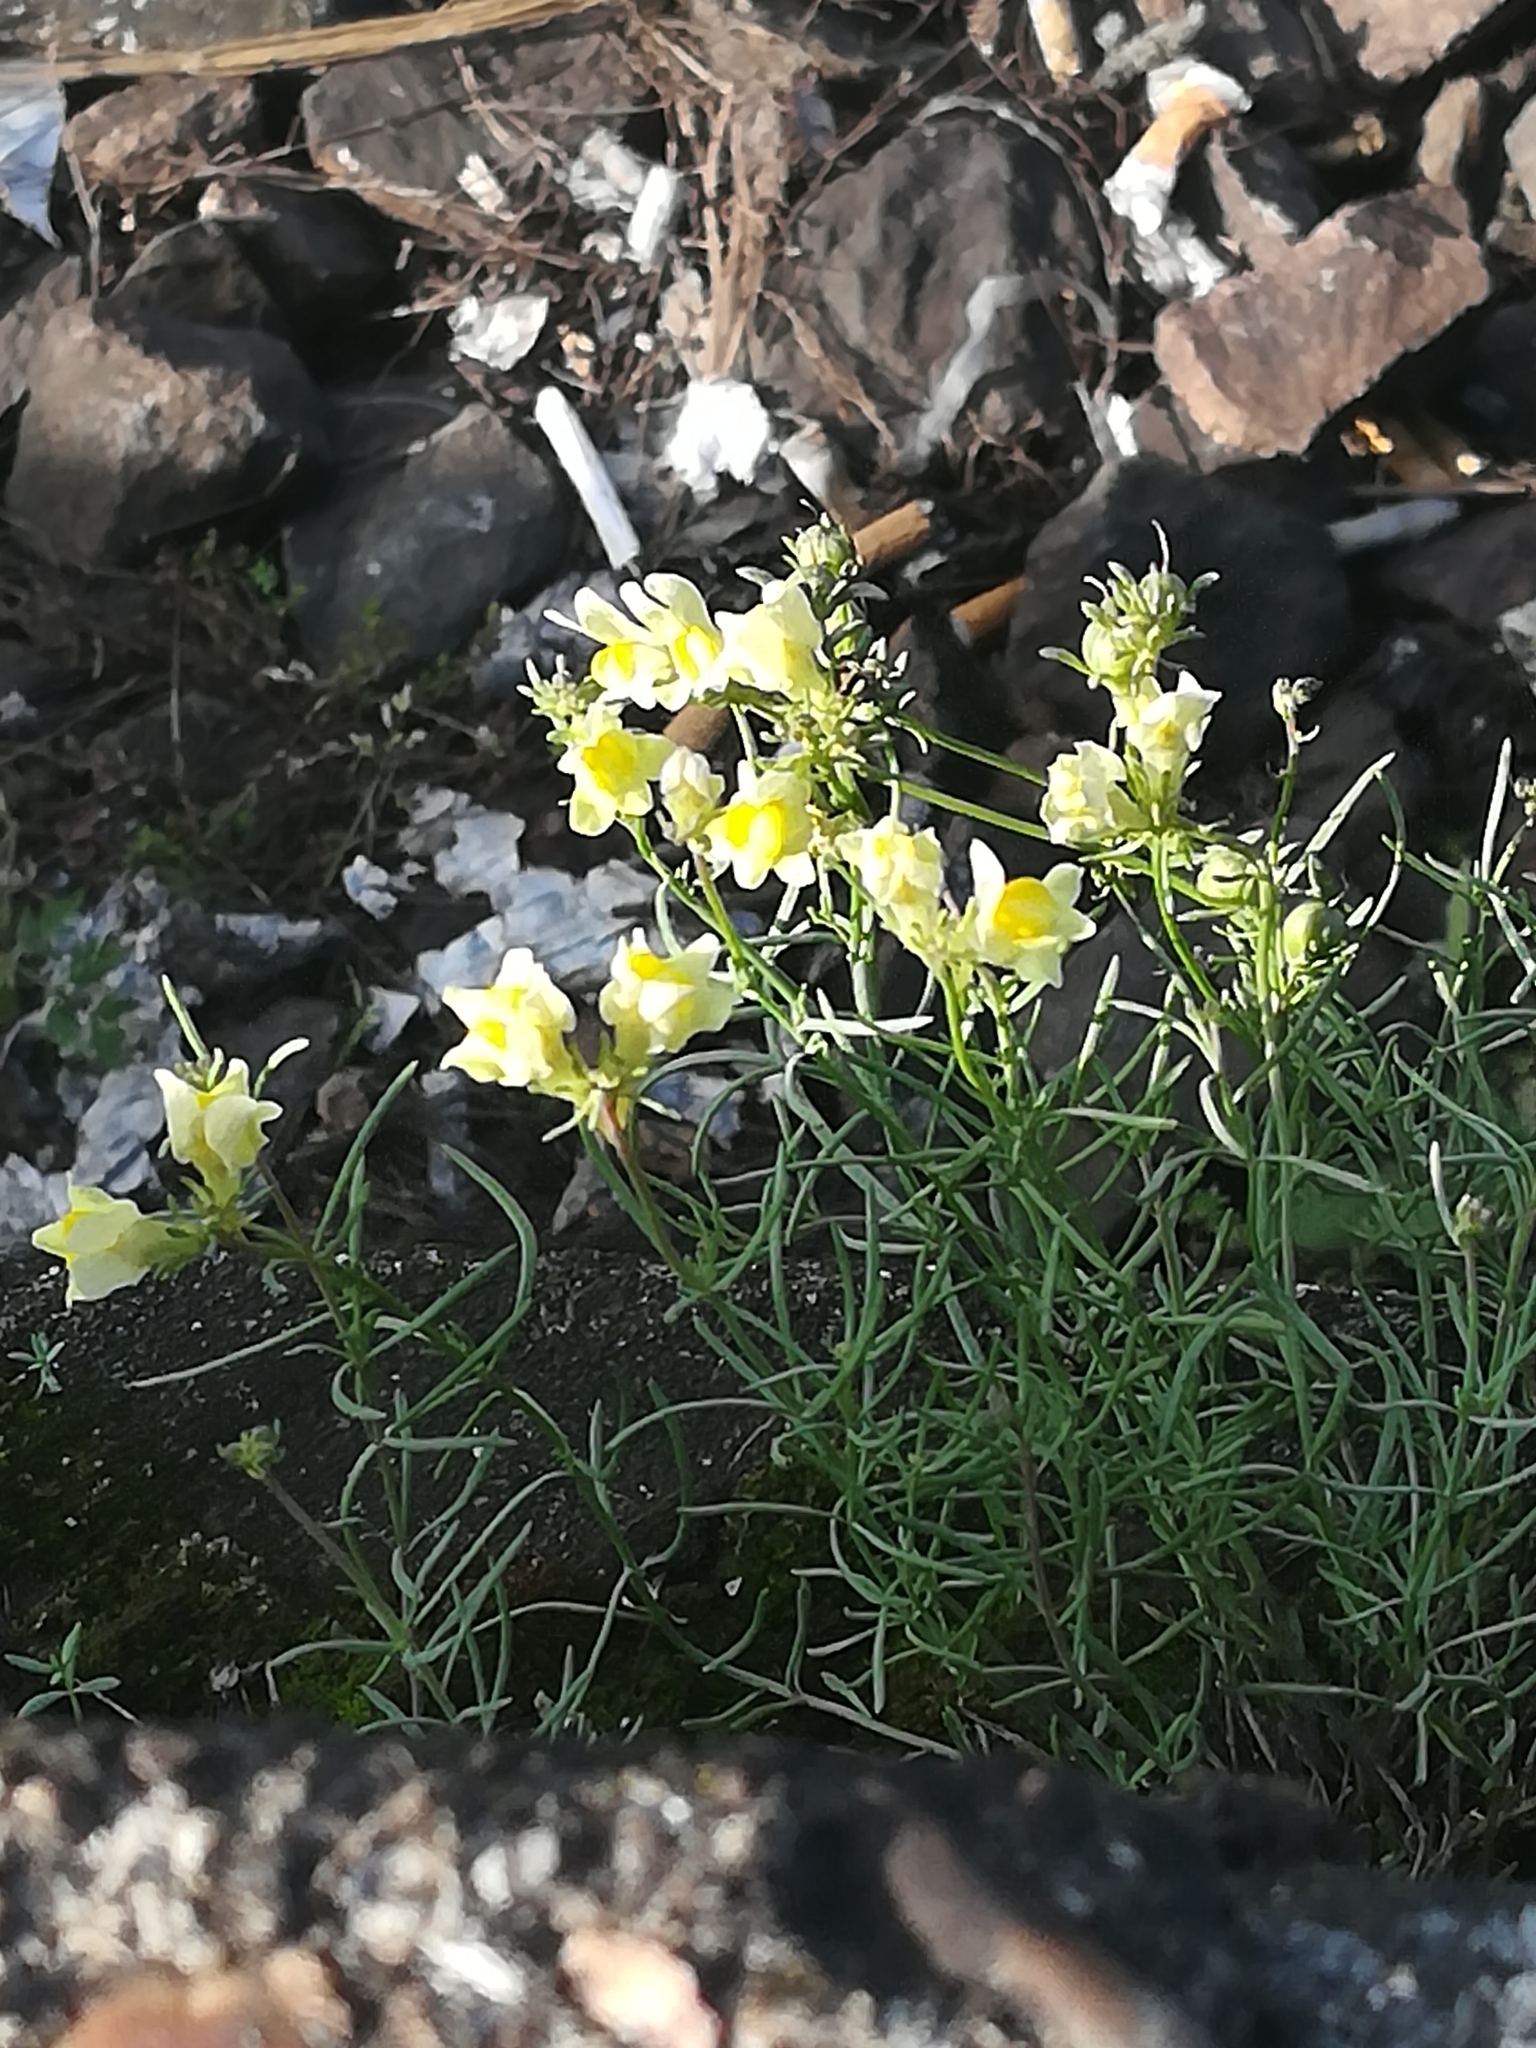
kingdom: Plantae
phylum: Tracheophyta
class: Magnoliopsida
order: Lamiales
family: Plantaginaceae
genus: Linaria
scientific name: Linaria vulgaris
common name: Butter and eggs
